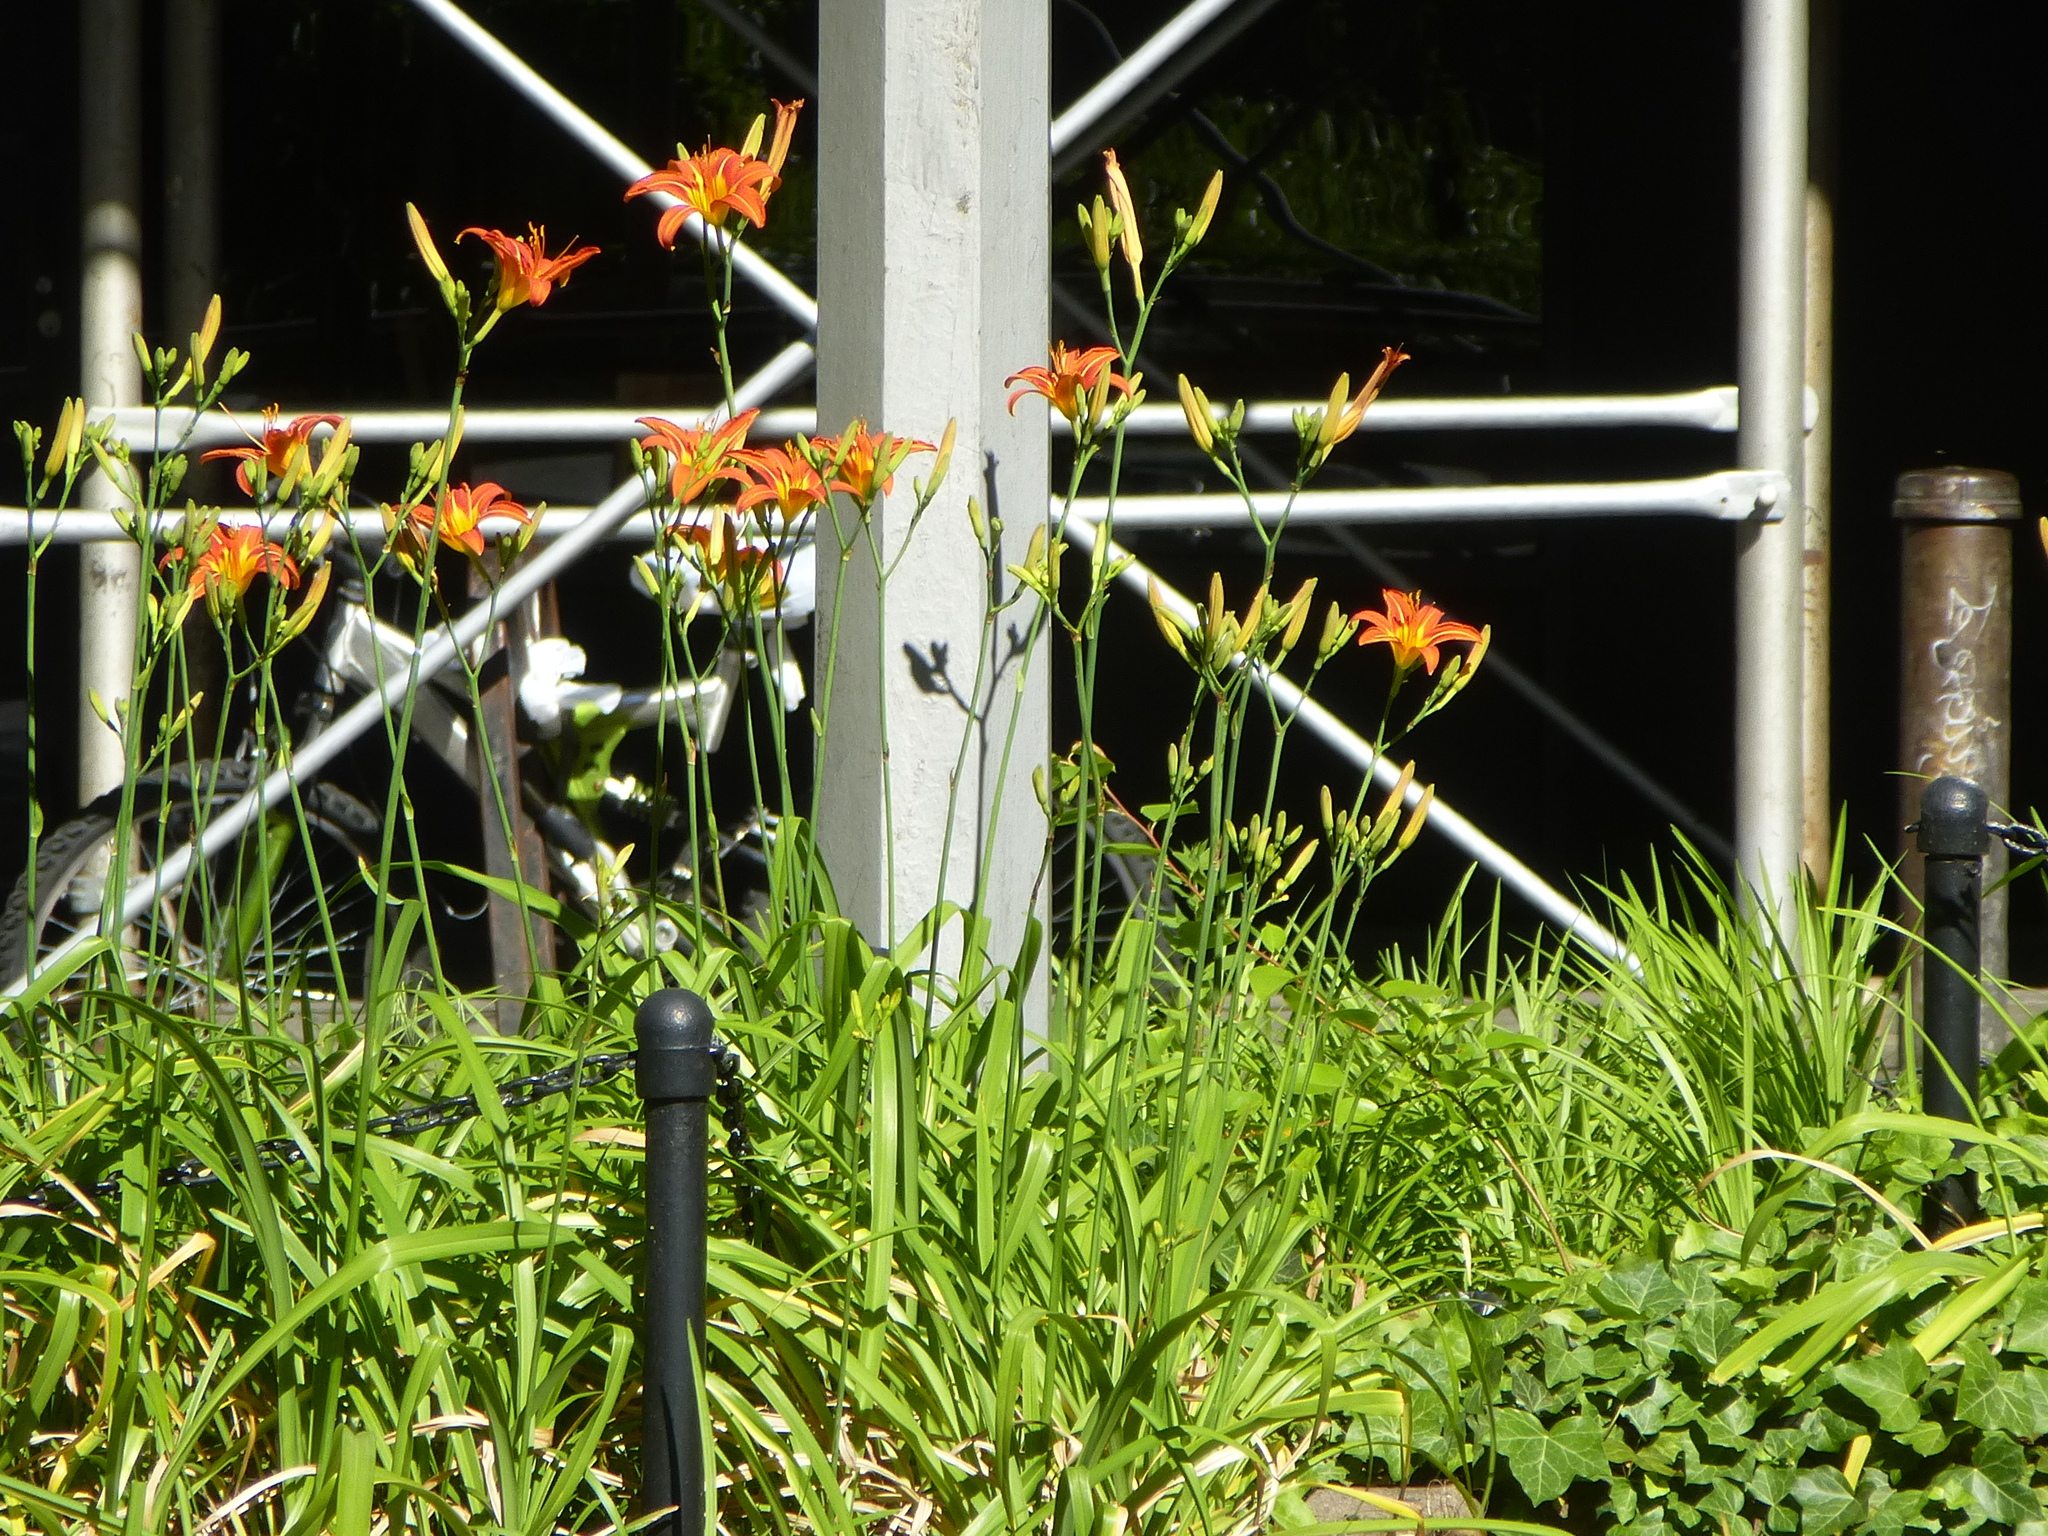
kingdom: Plantae
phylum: Tracheophyta
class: Liliopsida
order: Asparagales
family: Asphodelaceae
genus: Hemerocallis
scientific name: Hemerocallis fulva
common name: Orange day-lily
